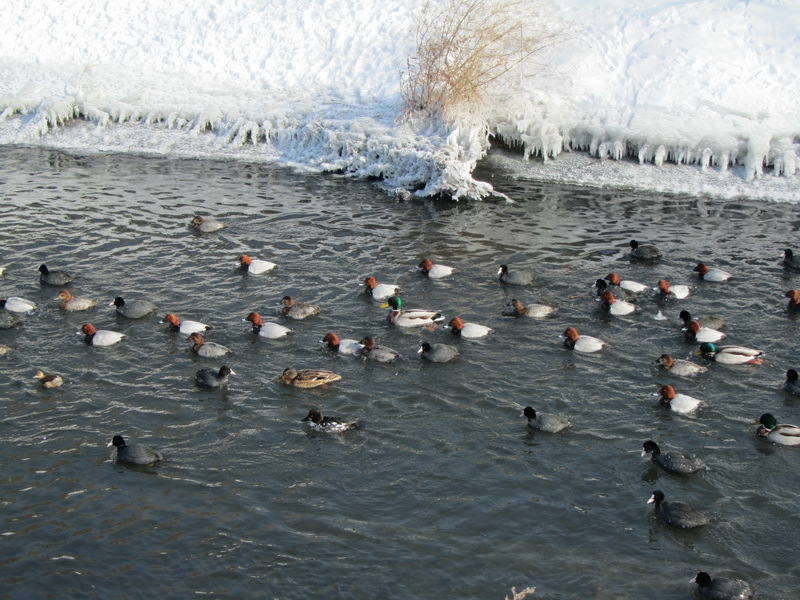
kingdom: Animalia
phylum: Chordata
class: Aves
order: Anseriformes
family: Anatidae
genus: Aythya
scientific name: Aythya ferina
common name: Common pochard
